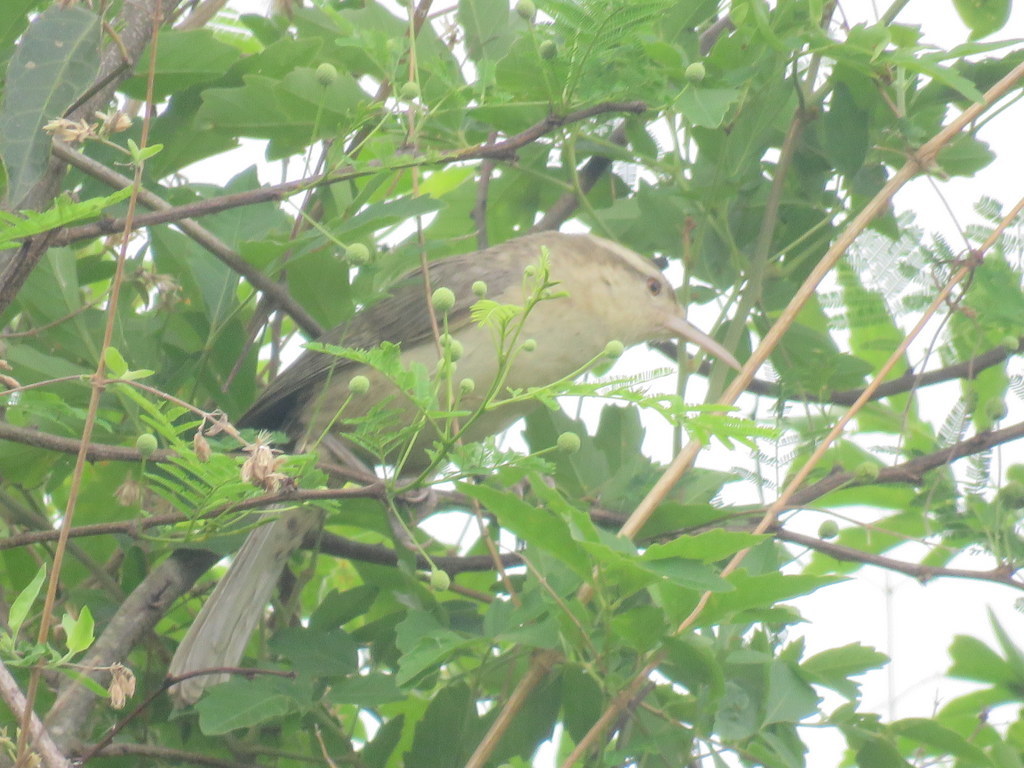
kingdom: Animalia
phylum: Chordata
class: Aves
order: Passeriformes
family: Troglodytidae
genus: Campylorhynchus
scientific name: Campylorhynchus turdinus
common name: Thrush-like wren
